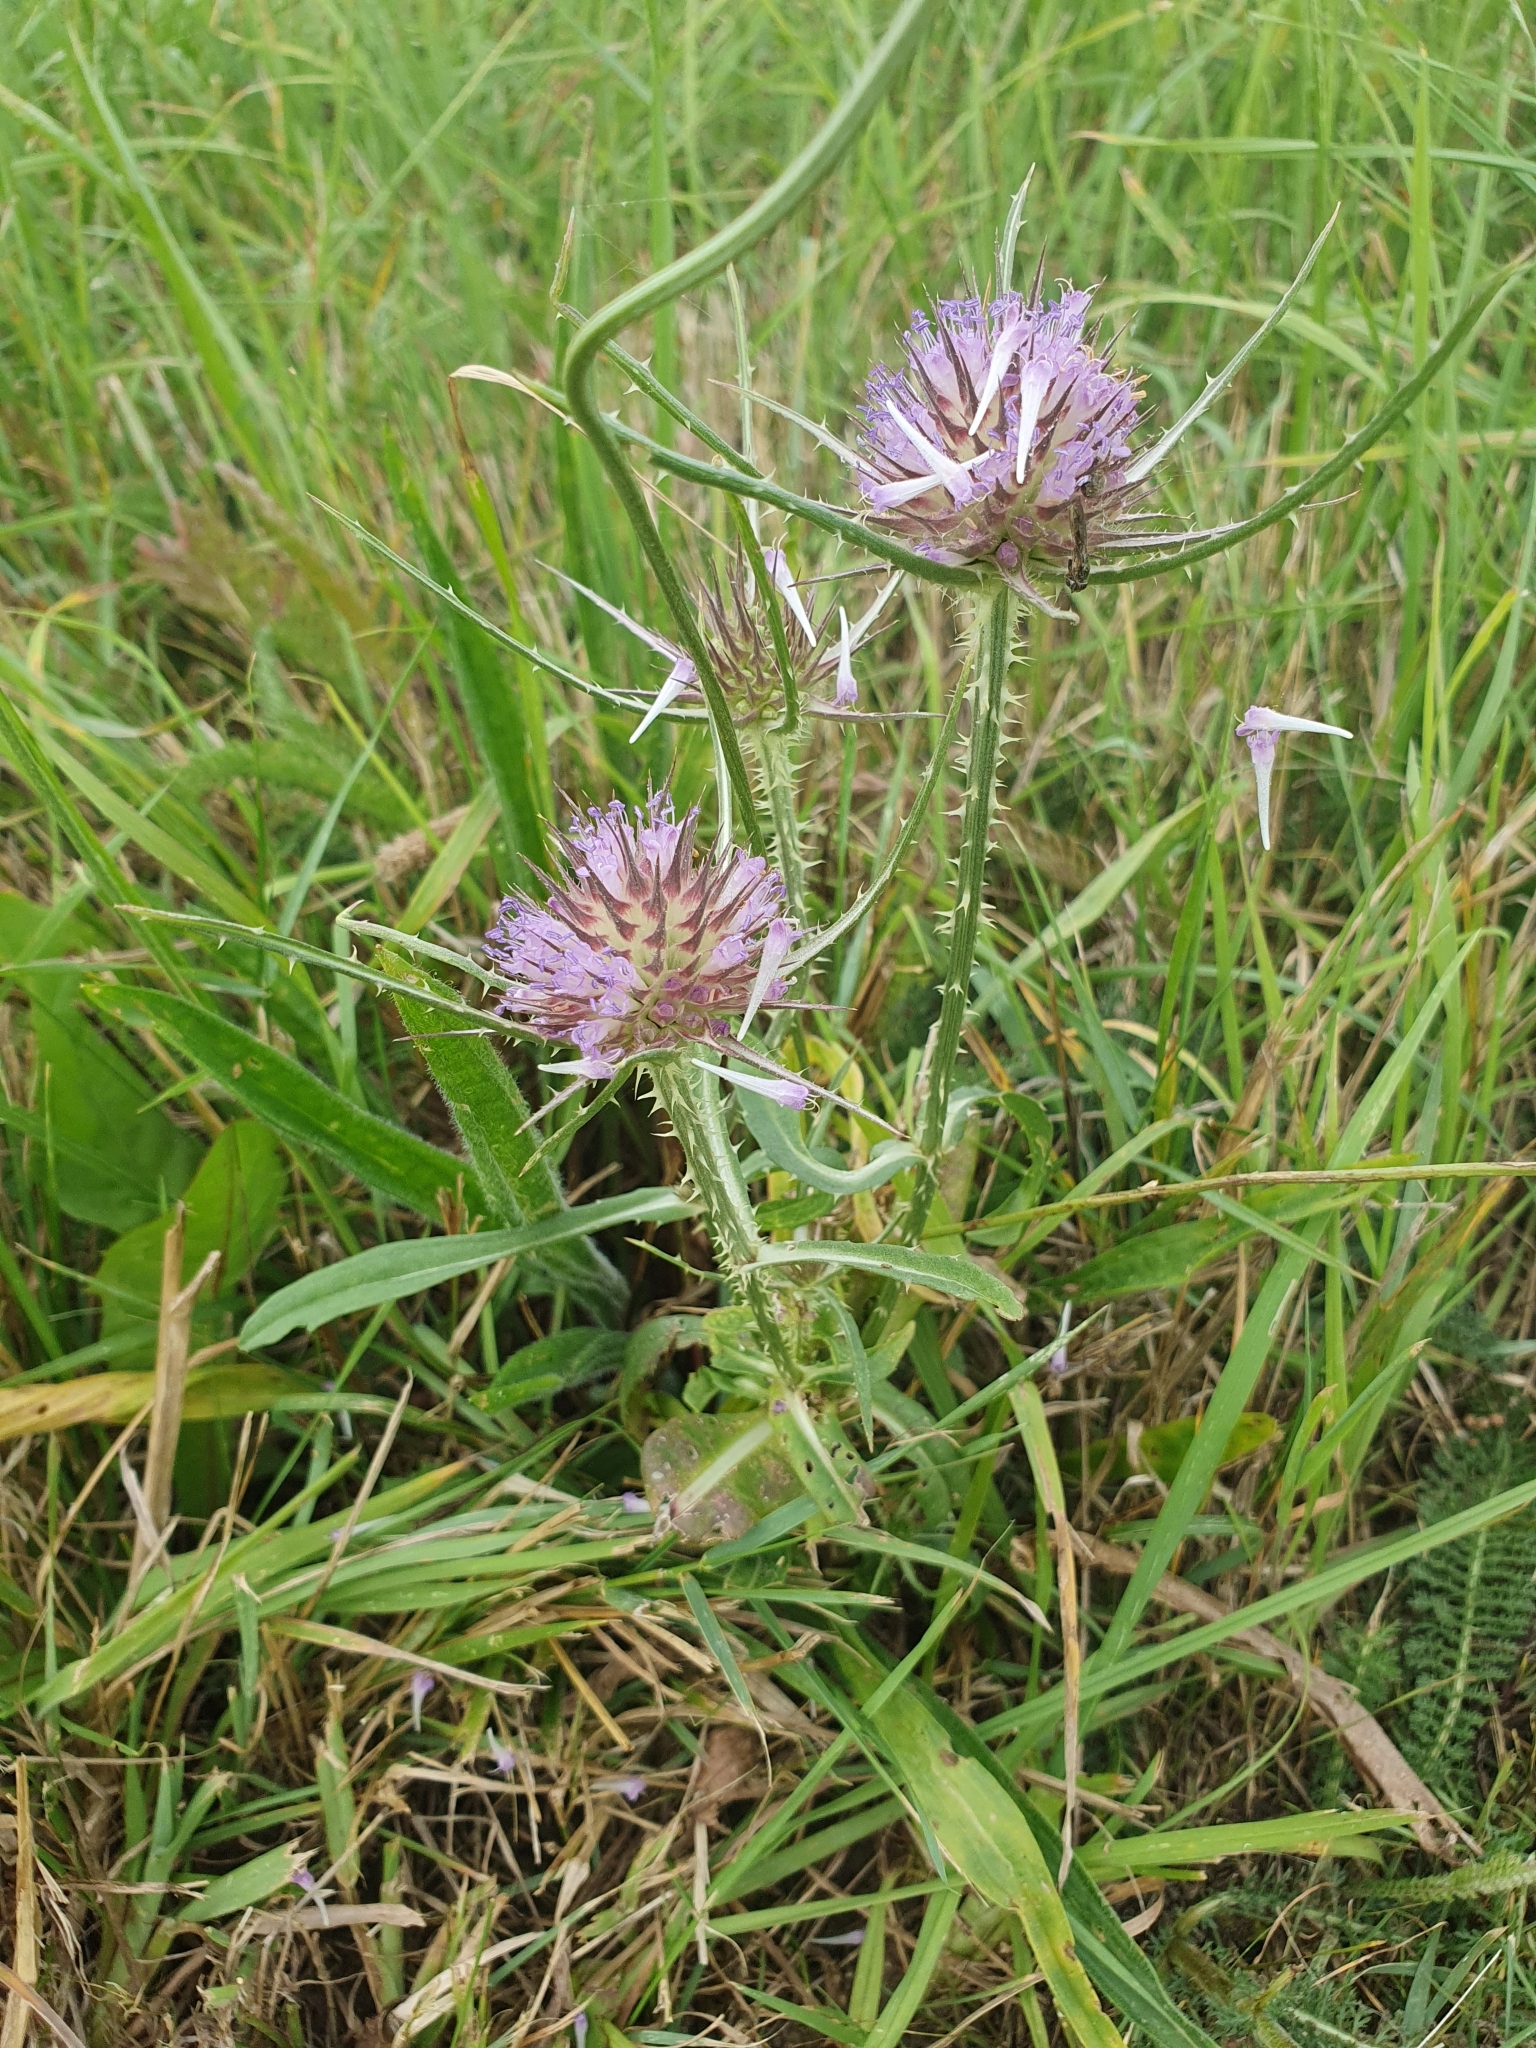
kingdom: Plantae
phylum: Tracheophyta
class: Magnoliopsida
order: Dipsacales
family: Caprifoliaceae
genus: Dipsacus
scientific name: Dipsacus fullonum
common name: Teasel
